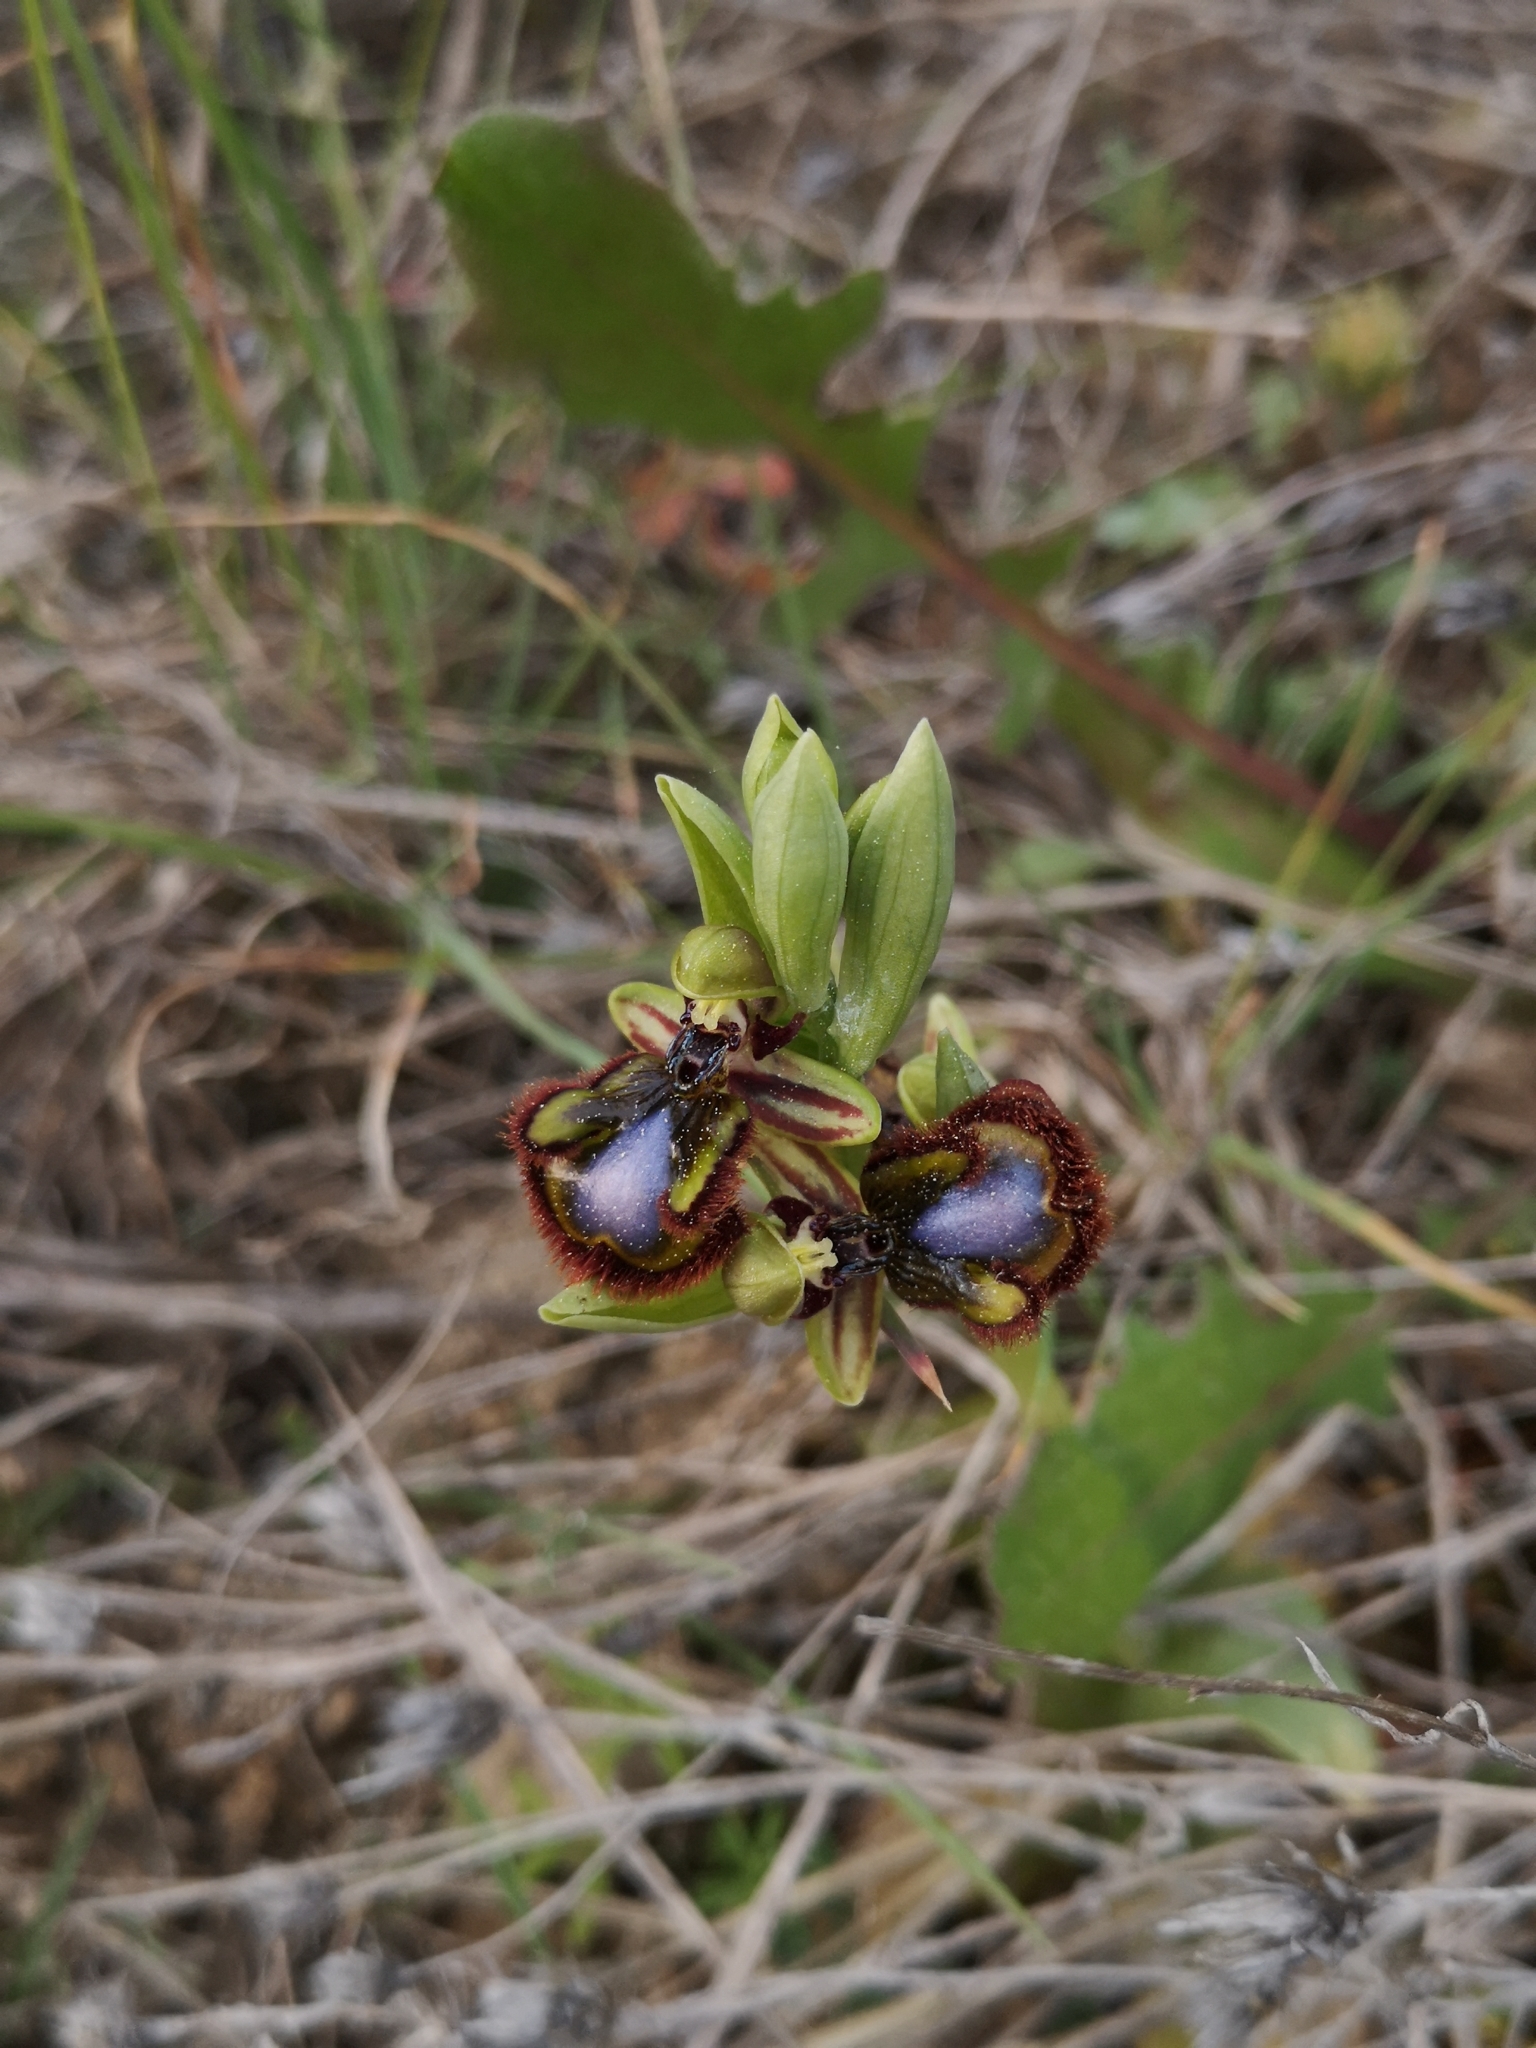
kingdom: Plantae
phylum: Tracheophyta
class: Liliopsida
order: Asparagales
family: Orchidaceae
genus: Ophrys
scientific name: Ophrys speculum
